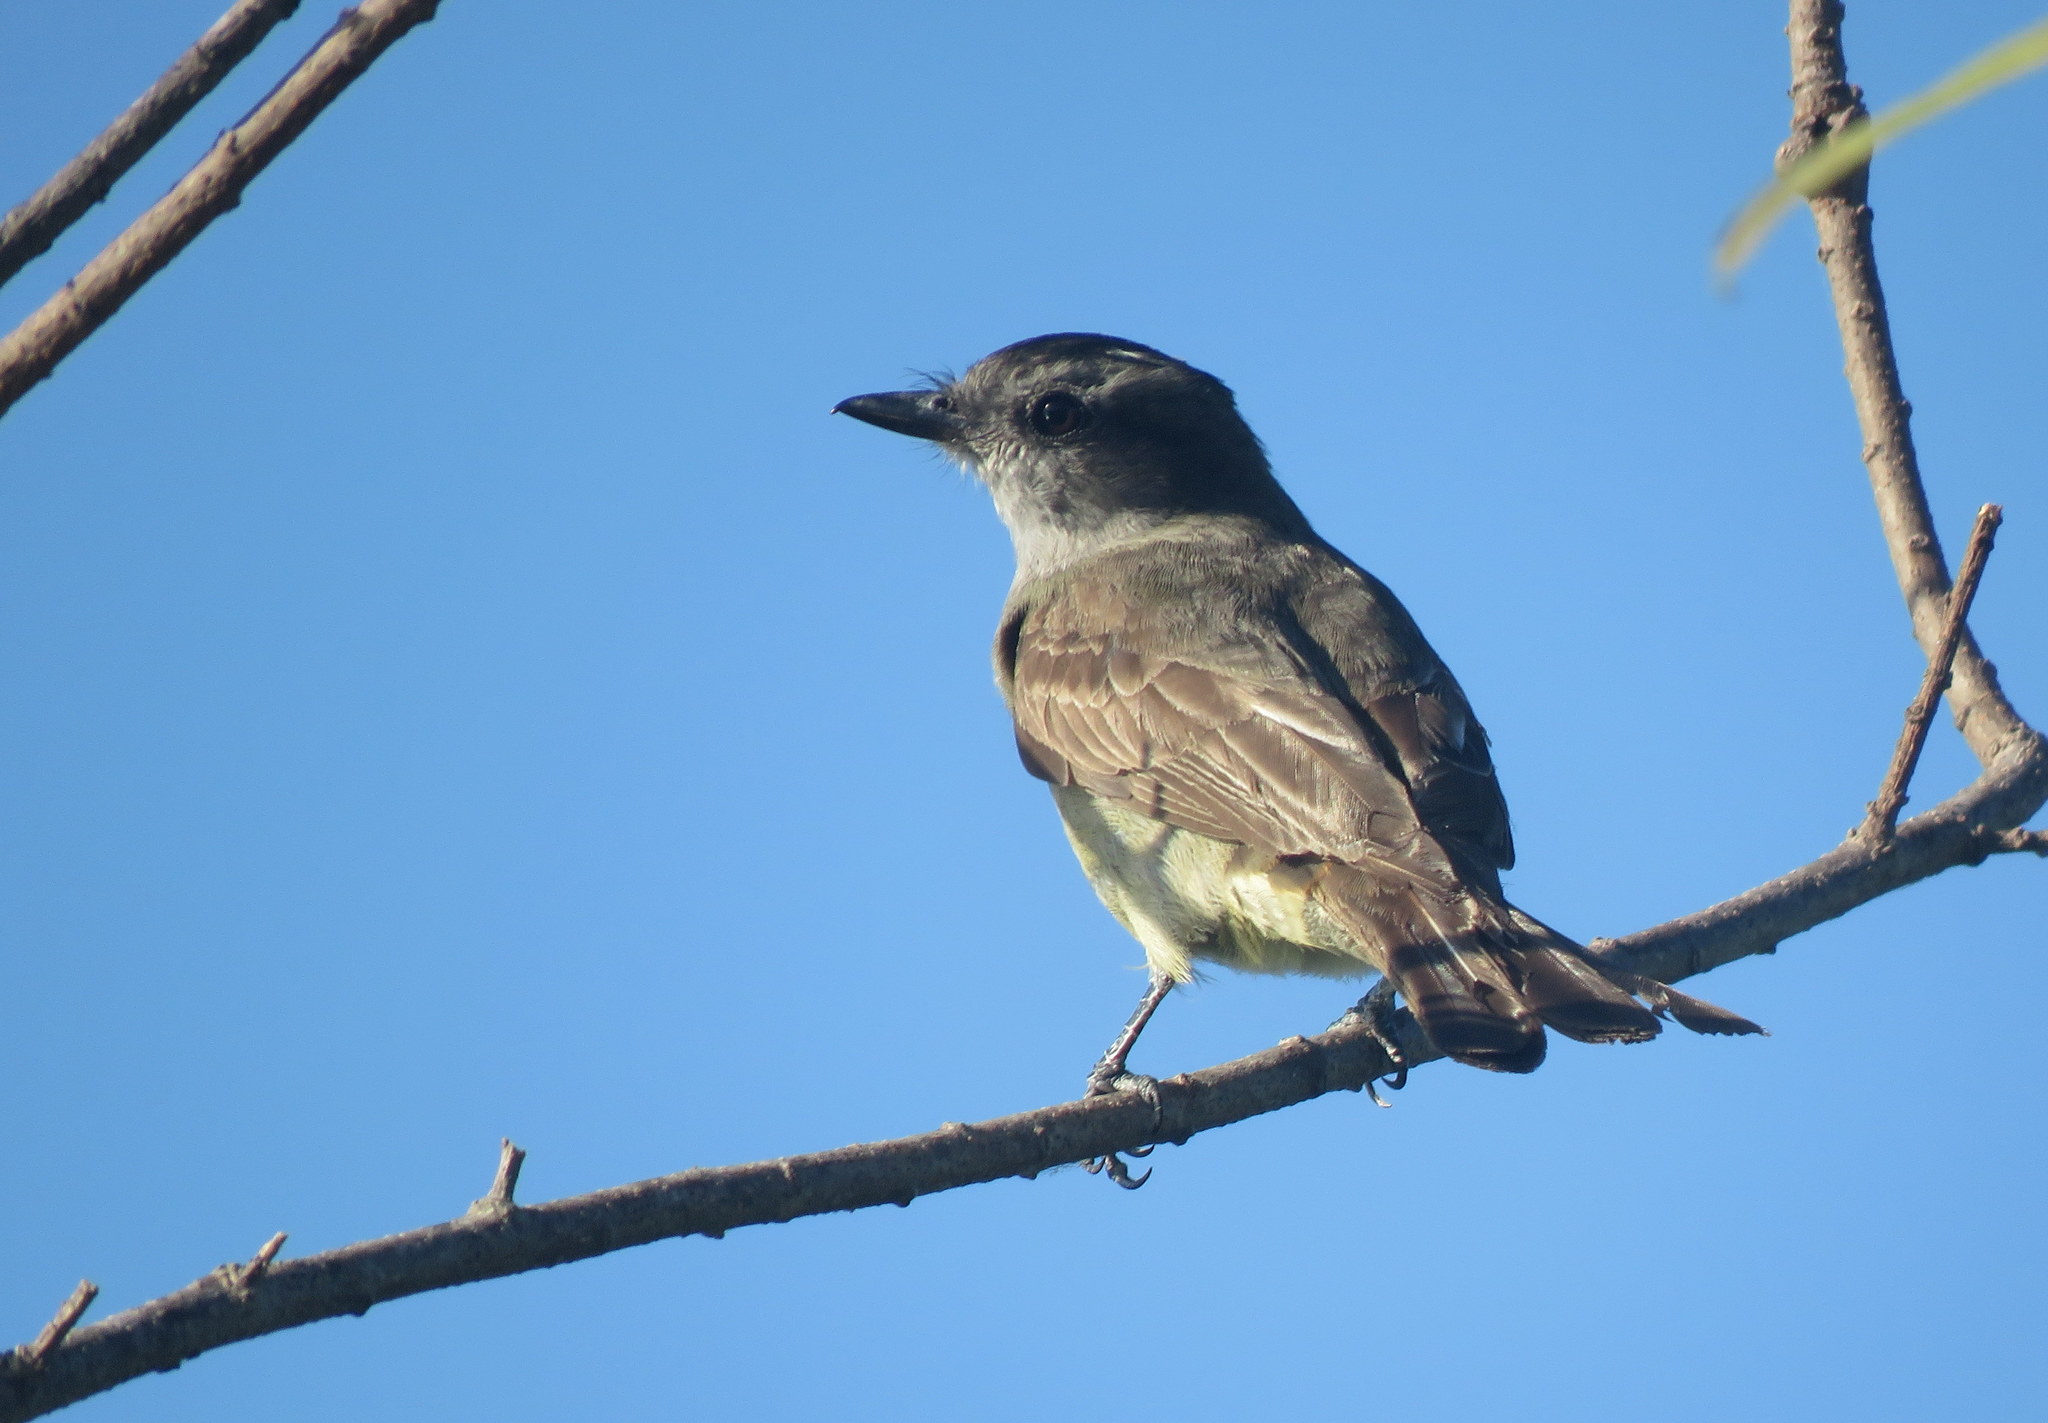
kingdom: Animalia
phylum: Chordata
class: Aves
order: Passeriformes
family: Tyrannidae
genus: Empidonomus
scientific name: Empidonomus aurantioatrocristatus
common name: Crowned slaty flycatcher
